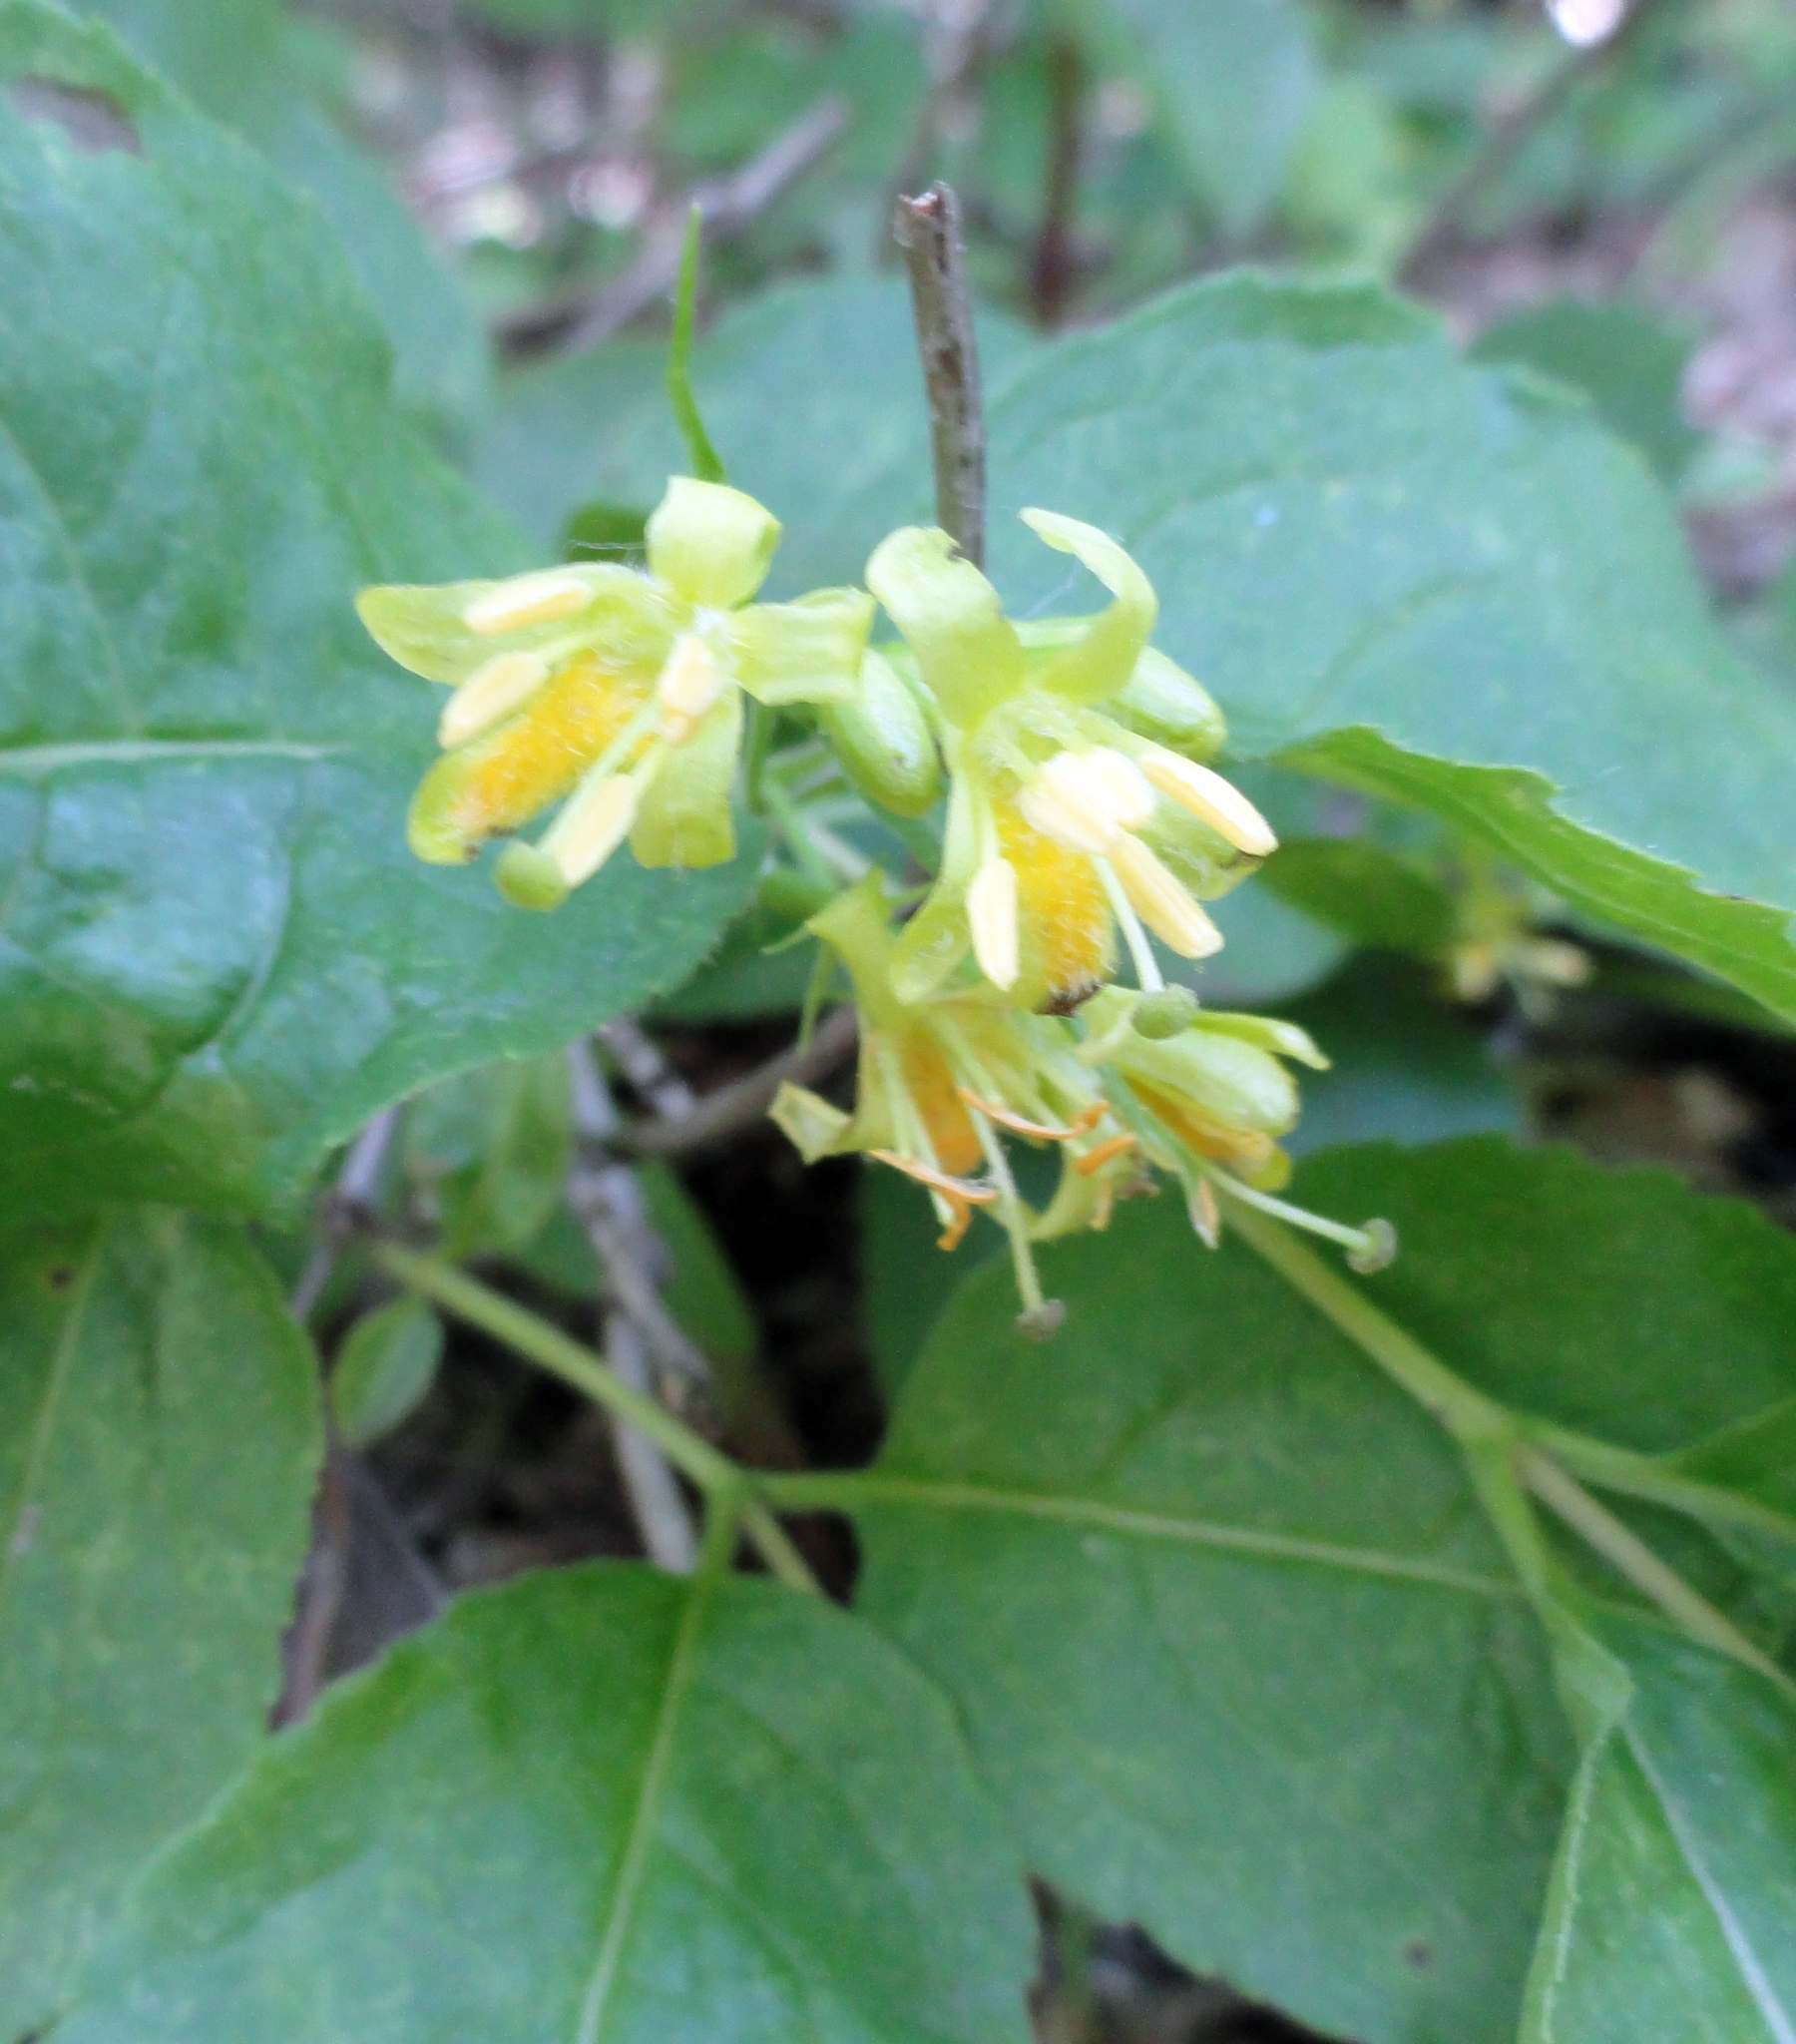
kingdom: Plantae
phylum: Tracheophyta
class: Magnoliopsida
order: Dipsacales
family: Caprifoliaceae
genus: Diervilla
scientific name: Diervilla lonicera
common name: Bush-honeysuckle
